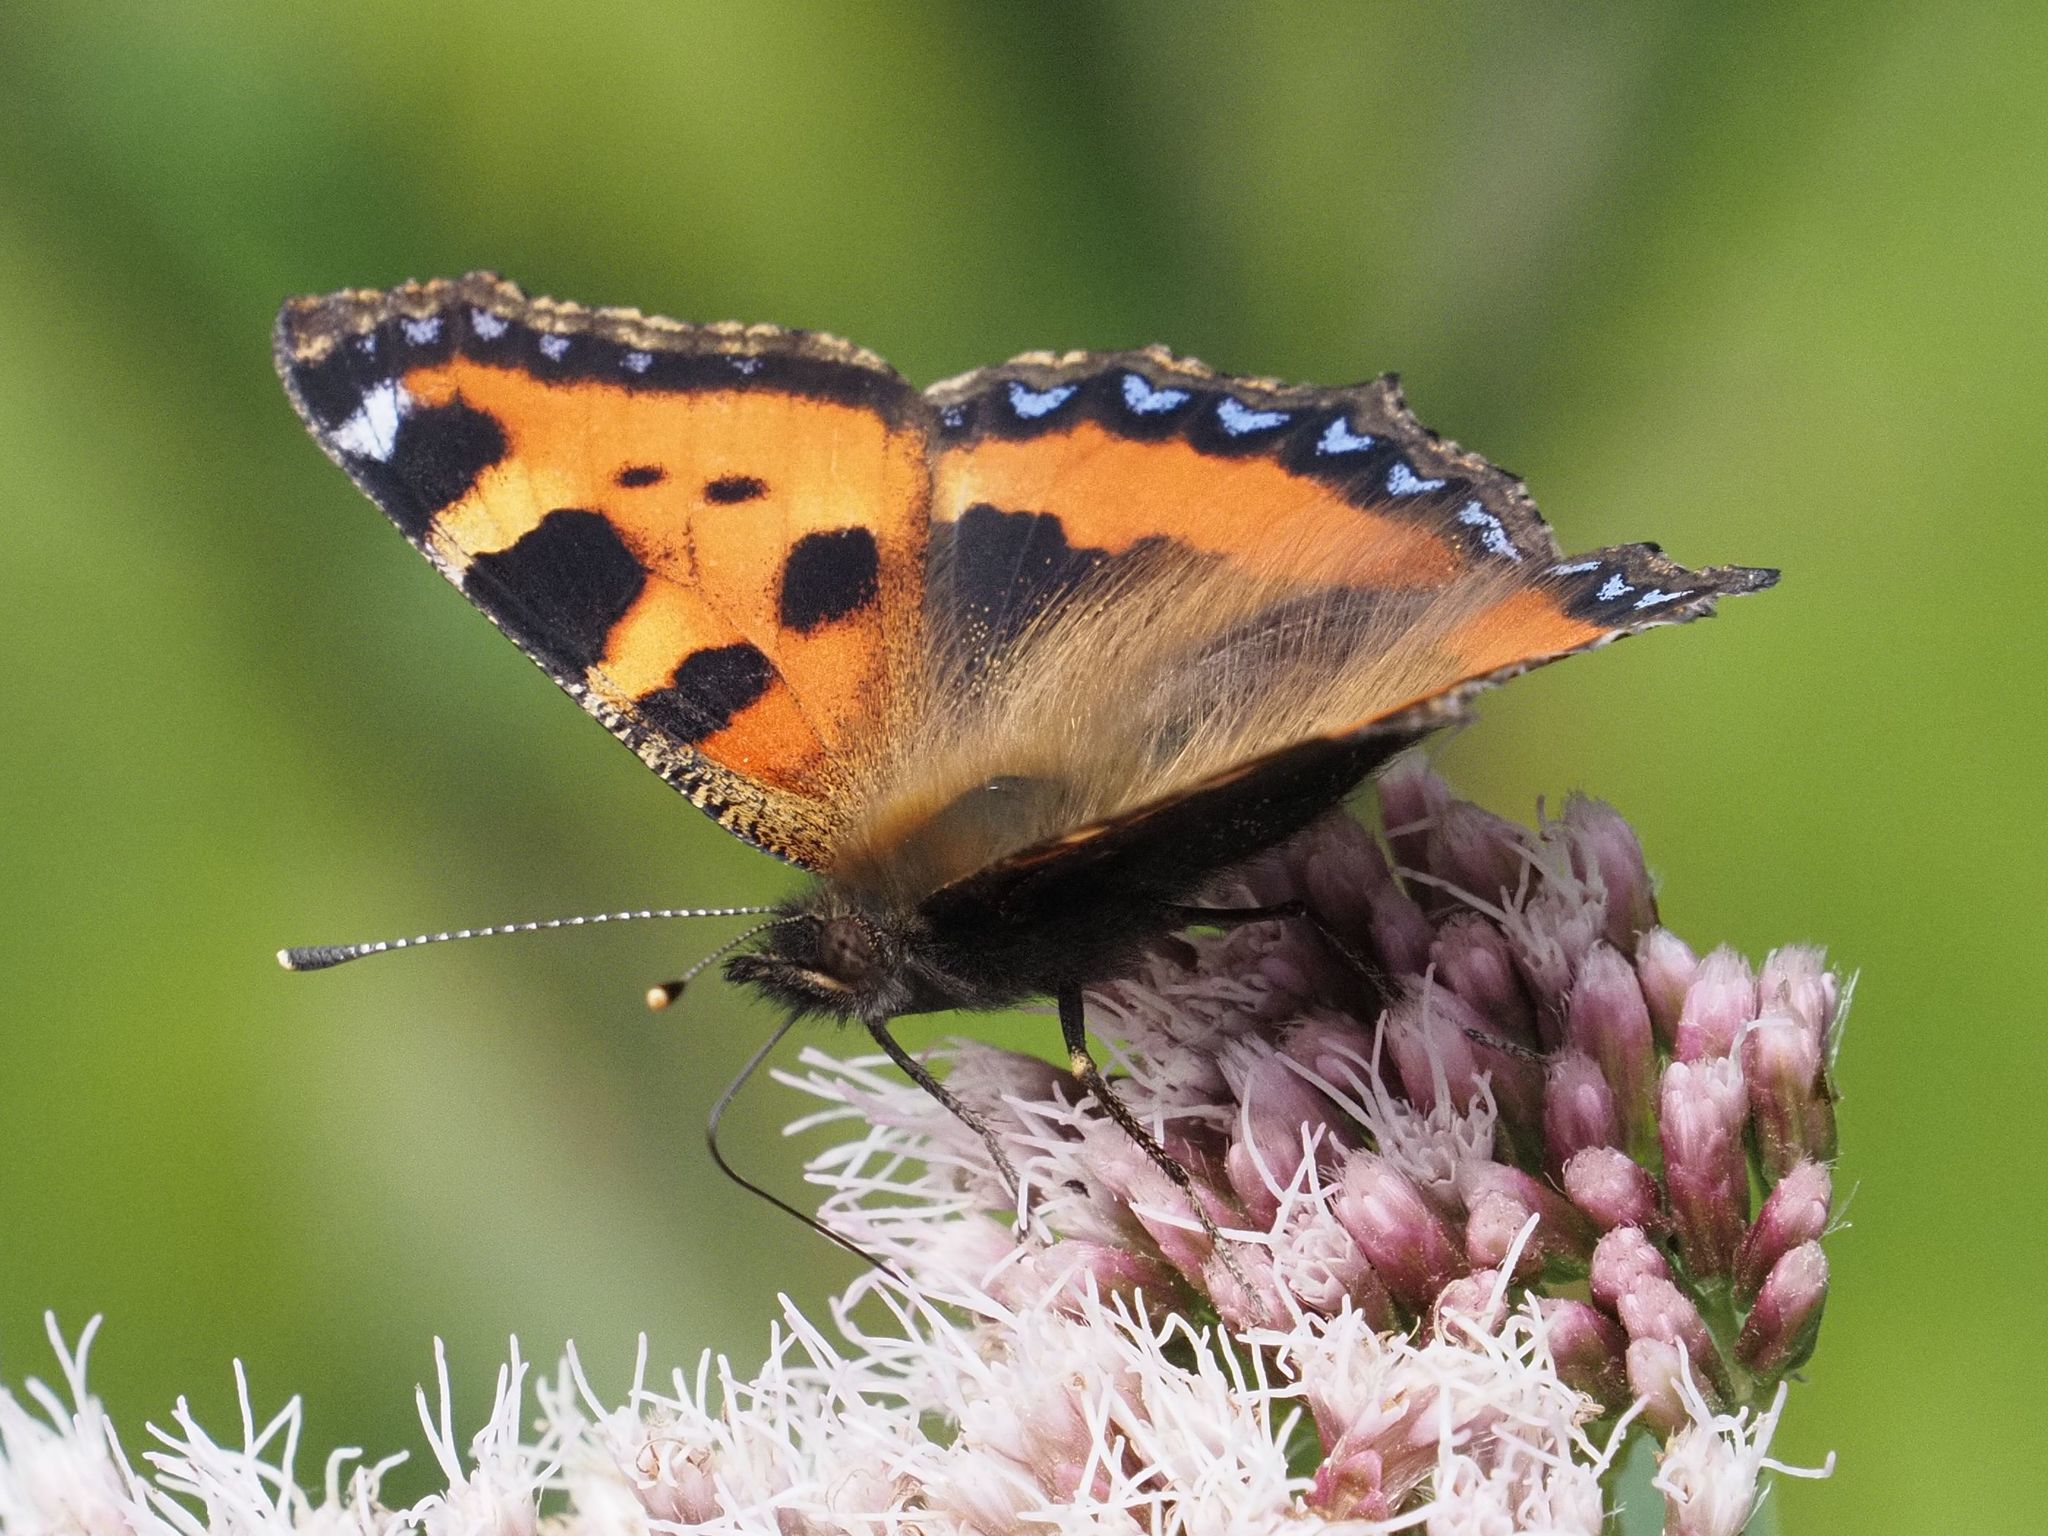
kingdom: Animalia
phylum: Arthropoda
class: Insecta
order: Lepidoptera
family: Nymphalidae
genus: Aglais
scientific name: Aglais urticae
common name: Small tortoiseshell
